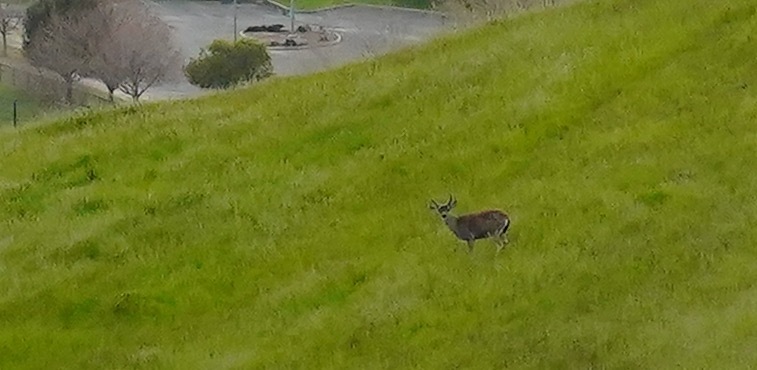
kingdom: Animalia
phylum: Chordata
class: Mammalia
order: Artiodactyla
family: Cervidae
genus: Odocoileus
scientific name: Odocoileus hemionus
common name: Mule deer
